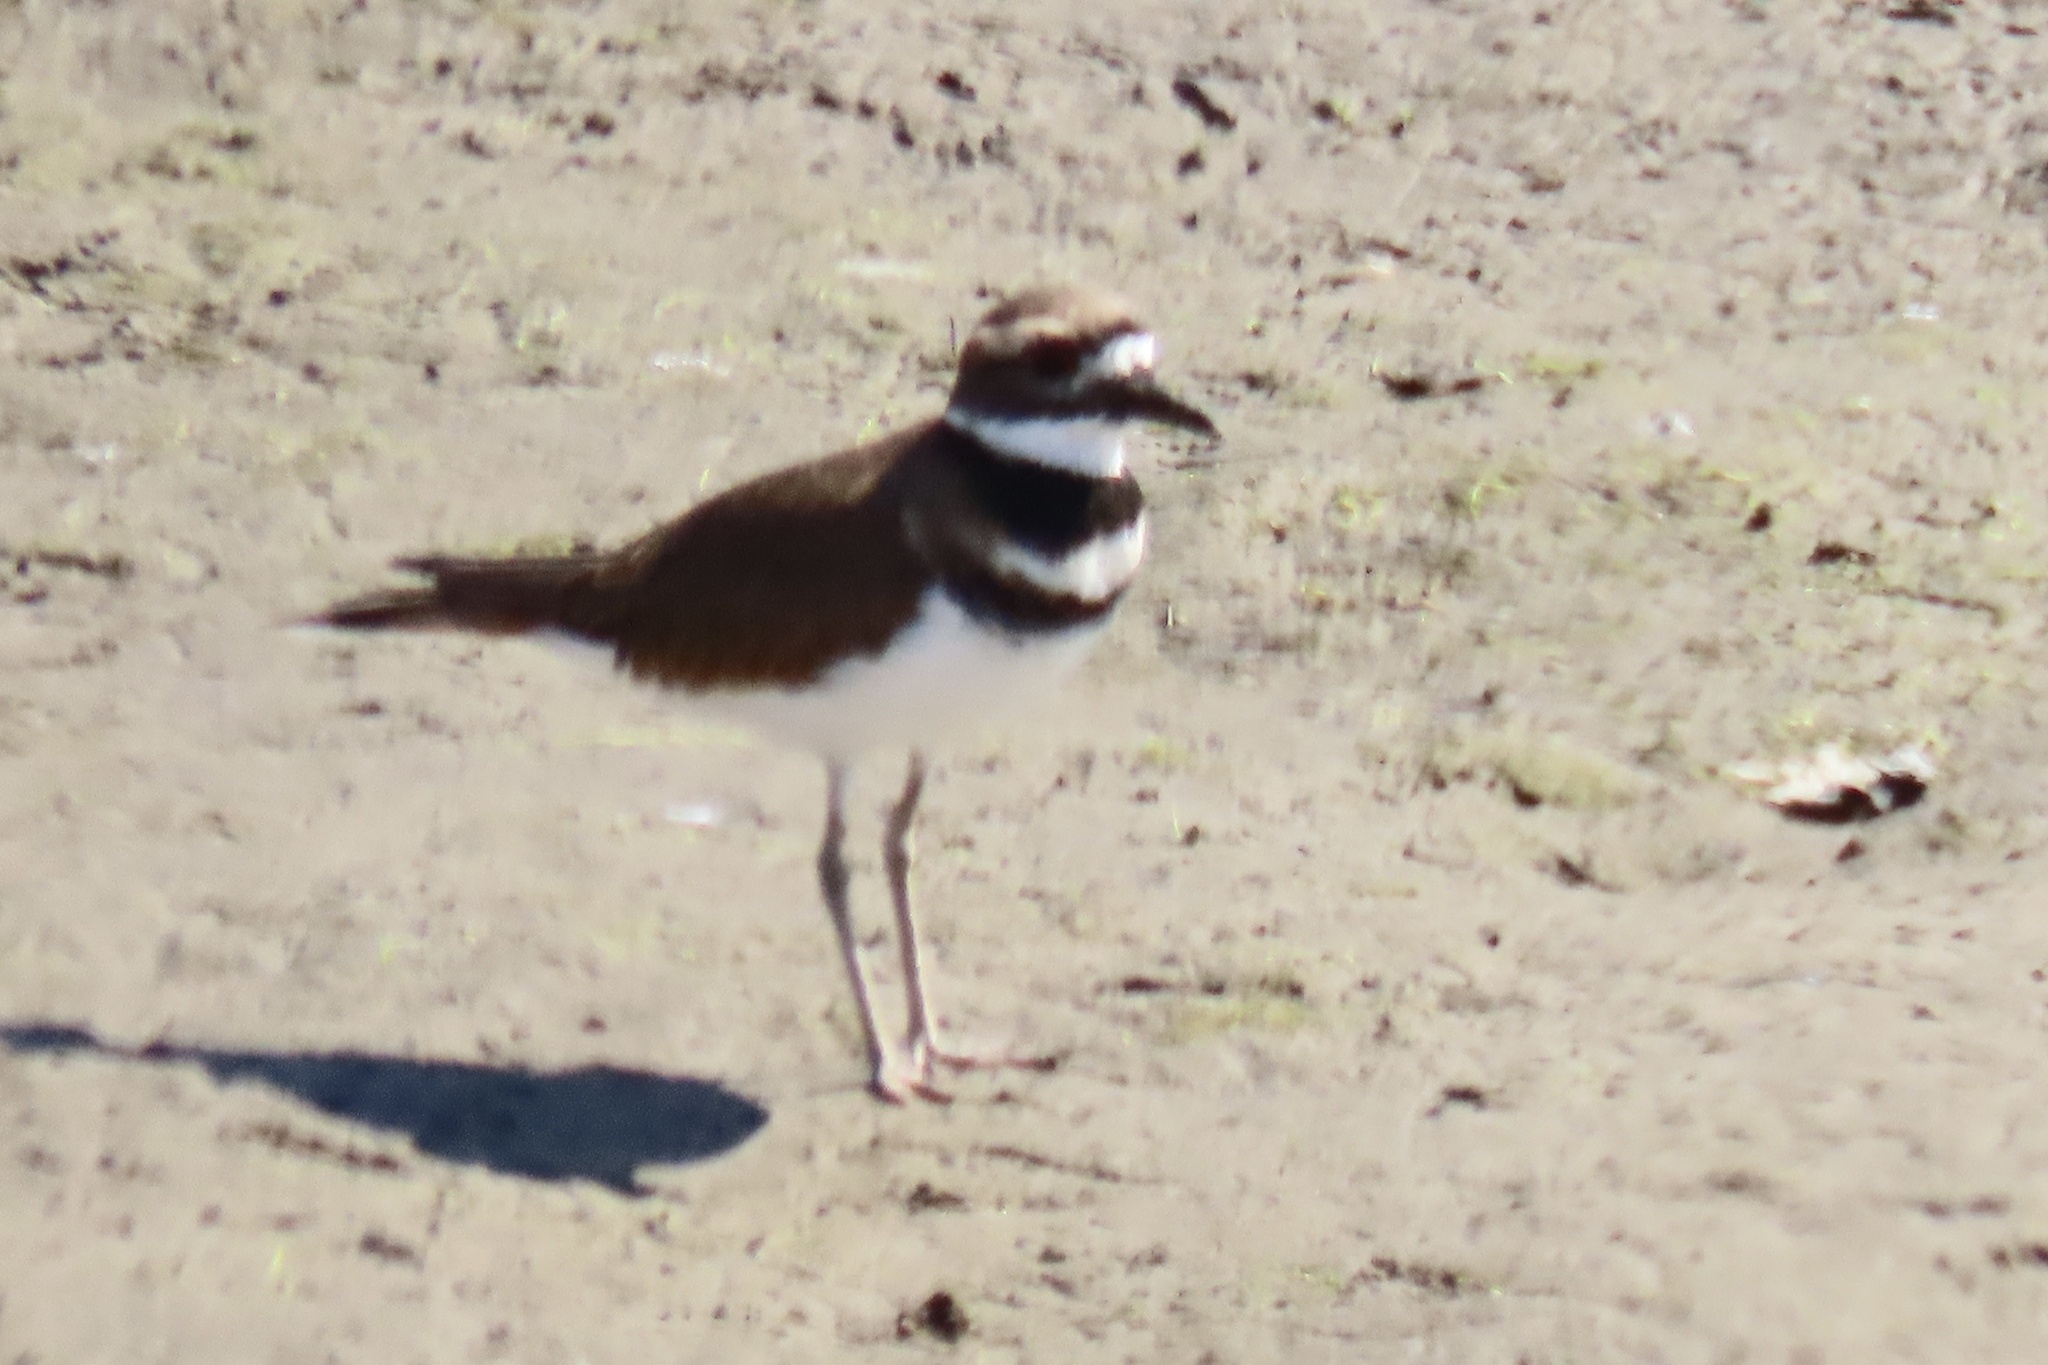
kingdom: Animalia
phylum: Chordata
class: Aves
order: Charadriiformes
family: Charadriidae
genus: Charadrius
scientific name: Charadrius vociferus
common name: Killdeer
